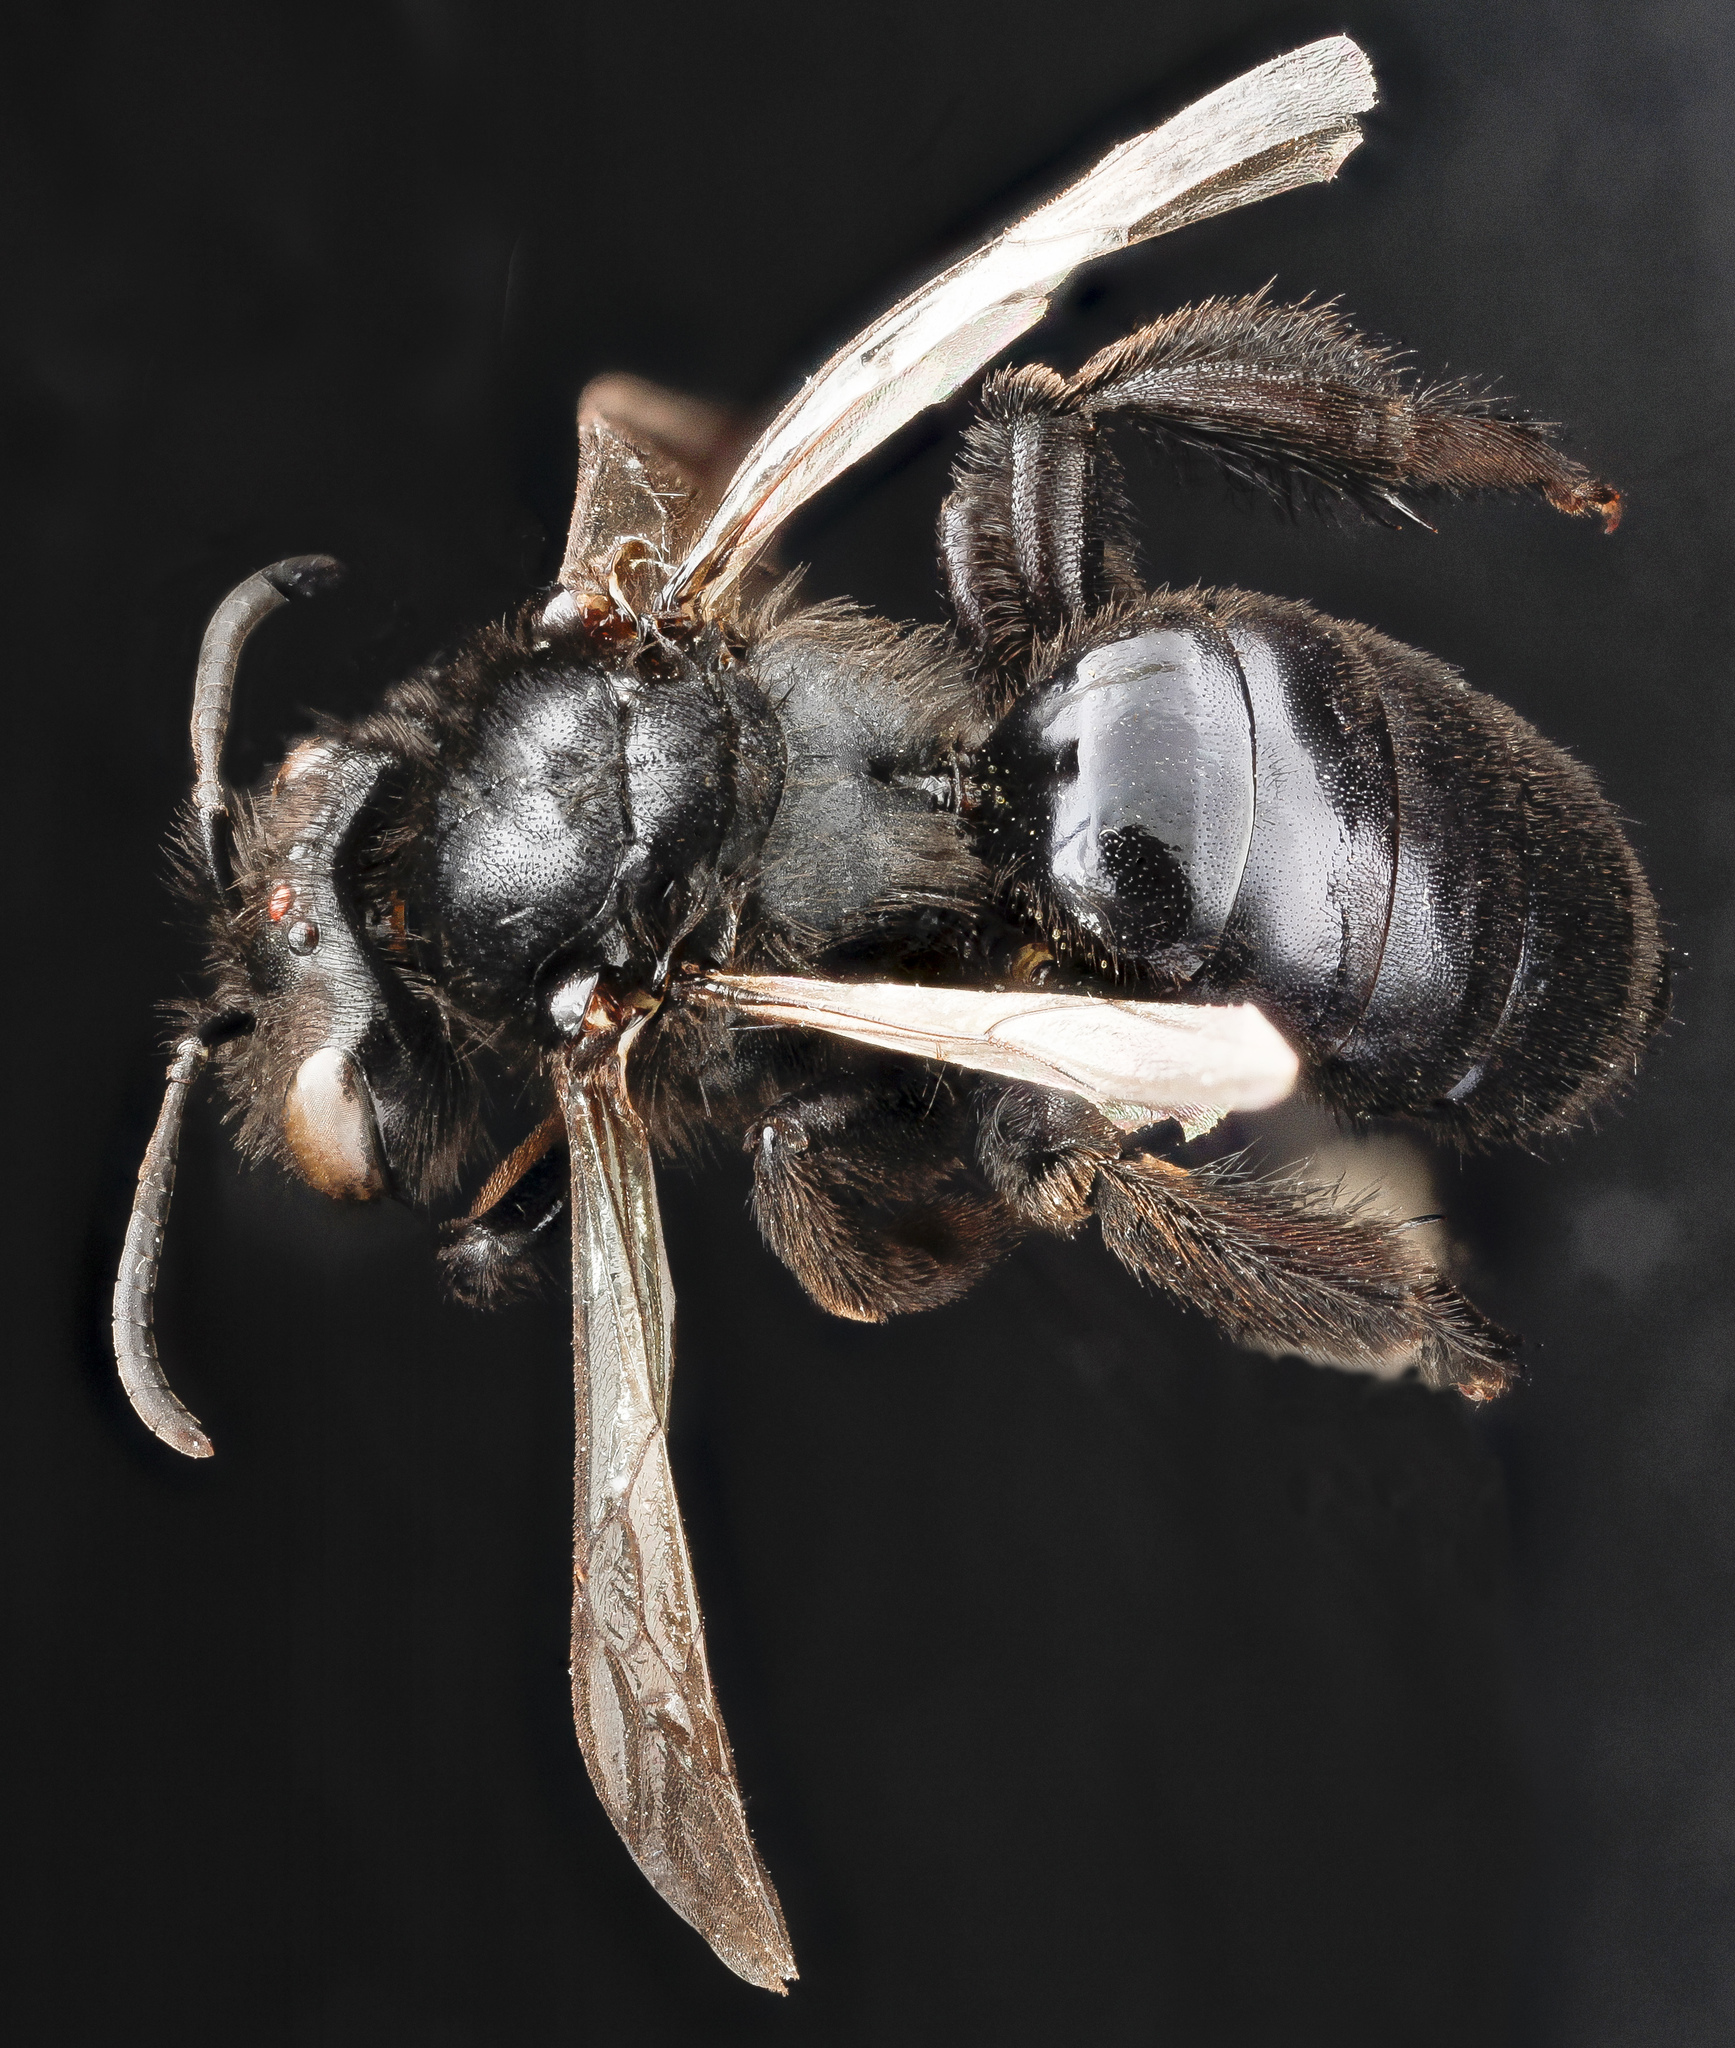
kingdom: Animalia
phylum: Arthropoda
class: Insecta
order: Hymenoptera
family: Andrenidae
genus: Andrena
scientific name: Andrena nigerrima
